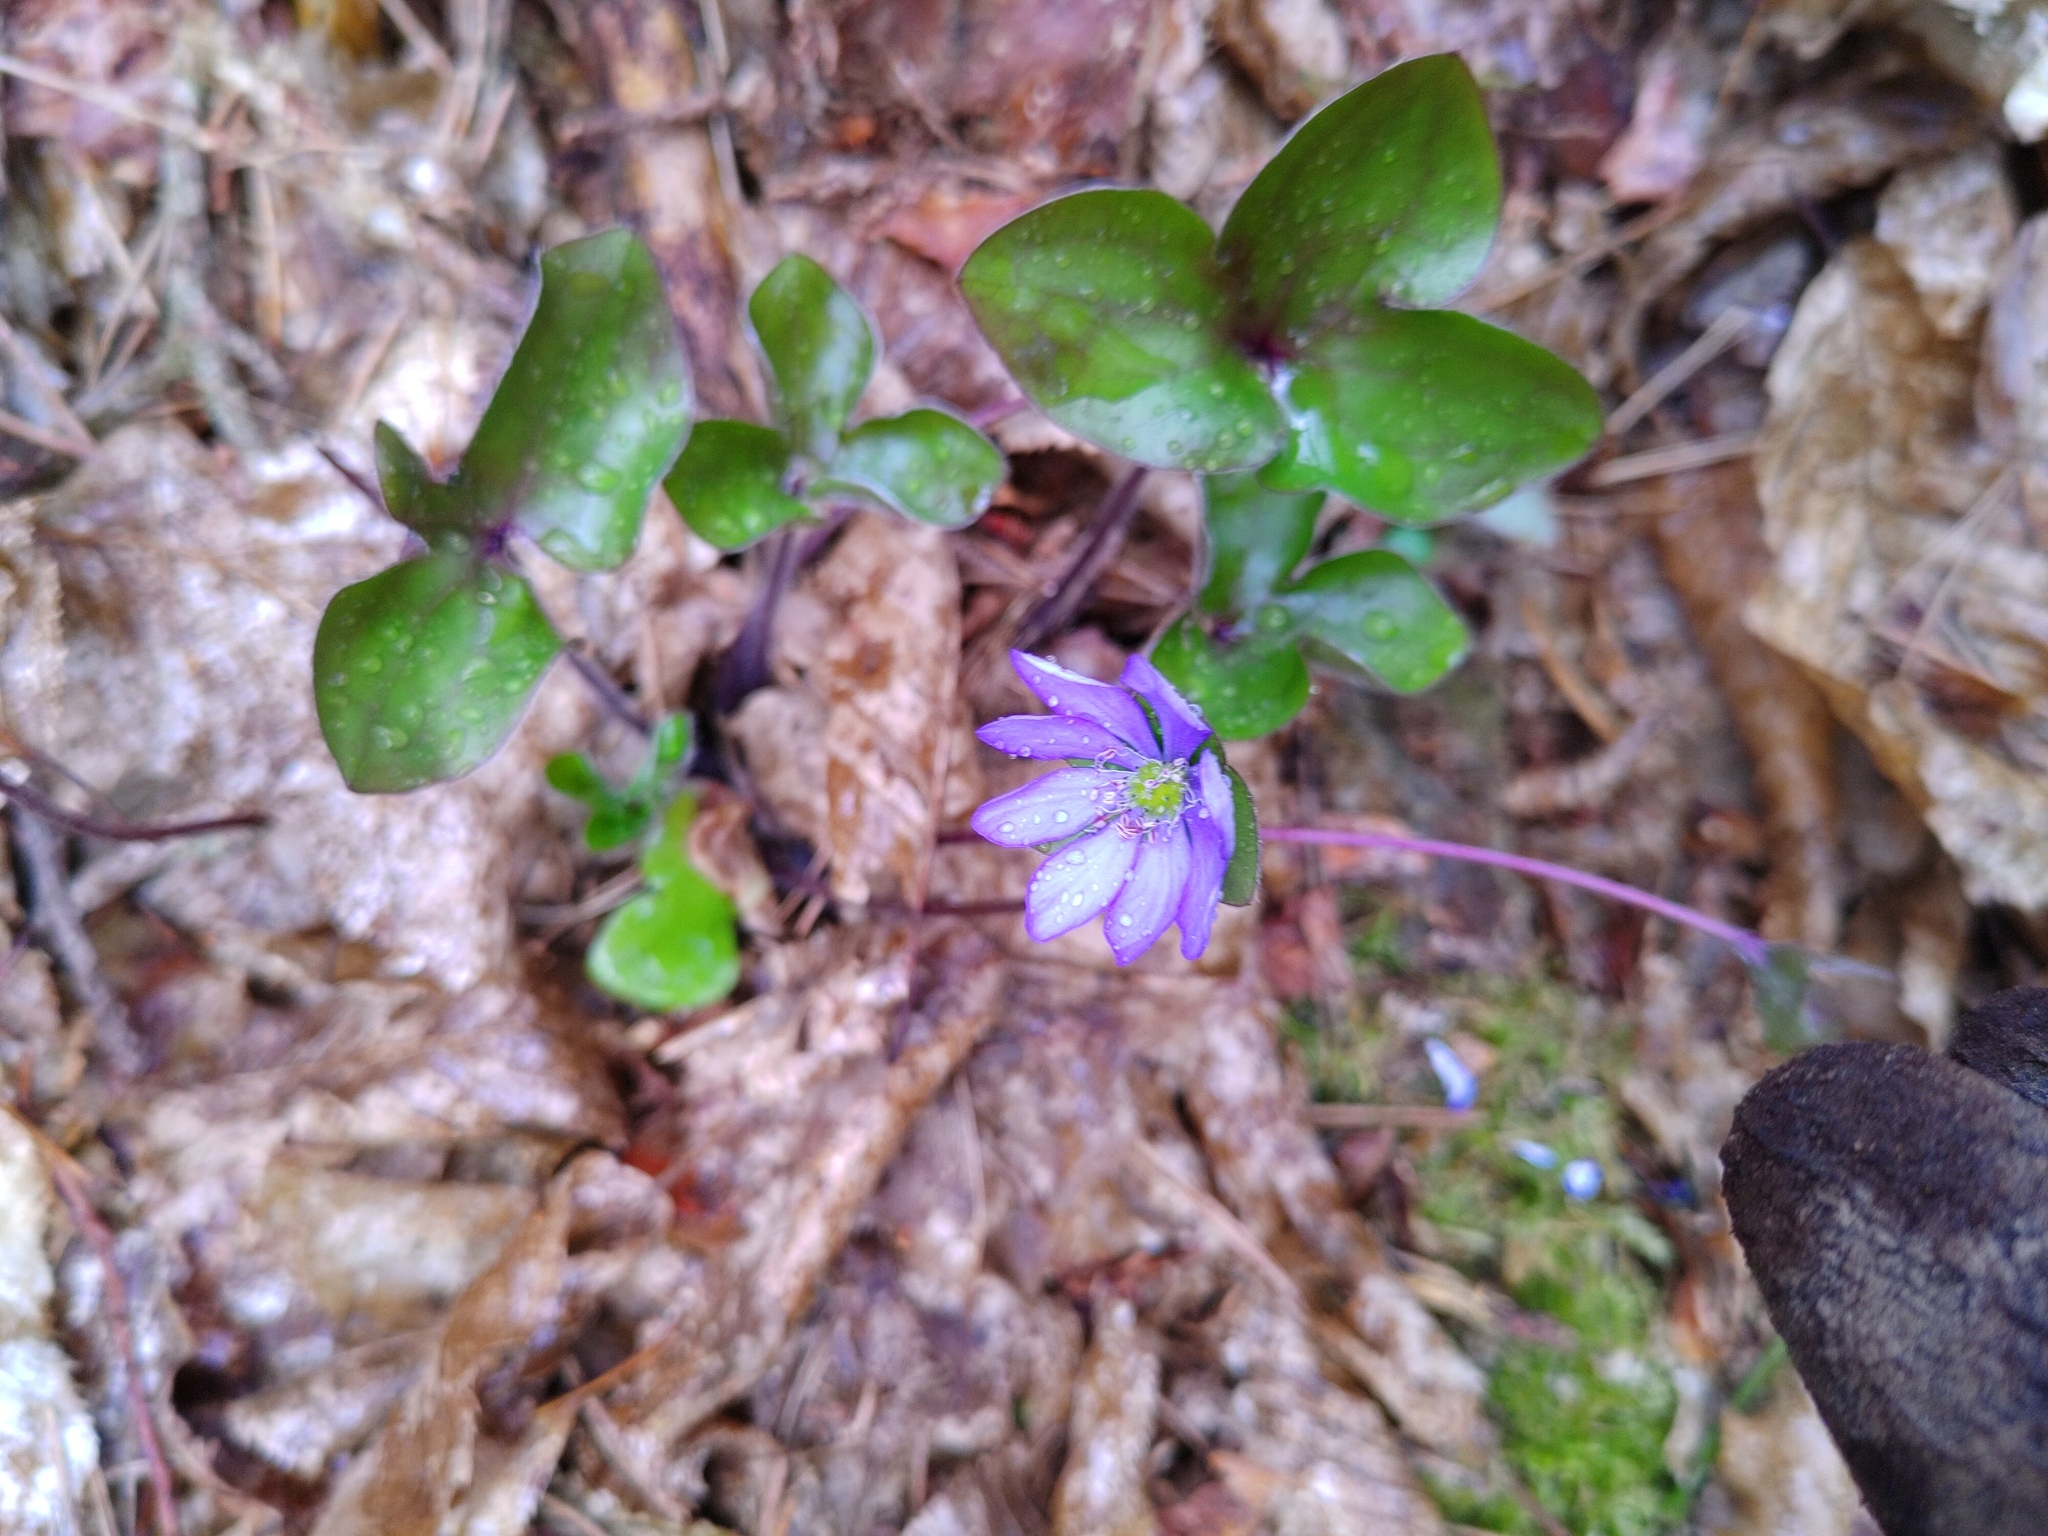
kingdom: Plantae
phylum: Tracheophyta
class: Magnoliopsida
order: Ranunculales
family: Ranunculaceae
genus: Hepatica
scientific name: Hepatica nobilis
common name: Liverleaf
